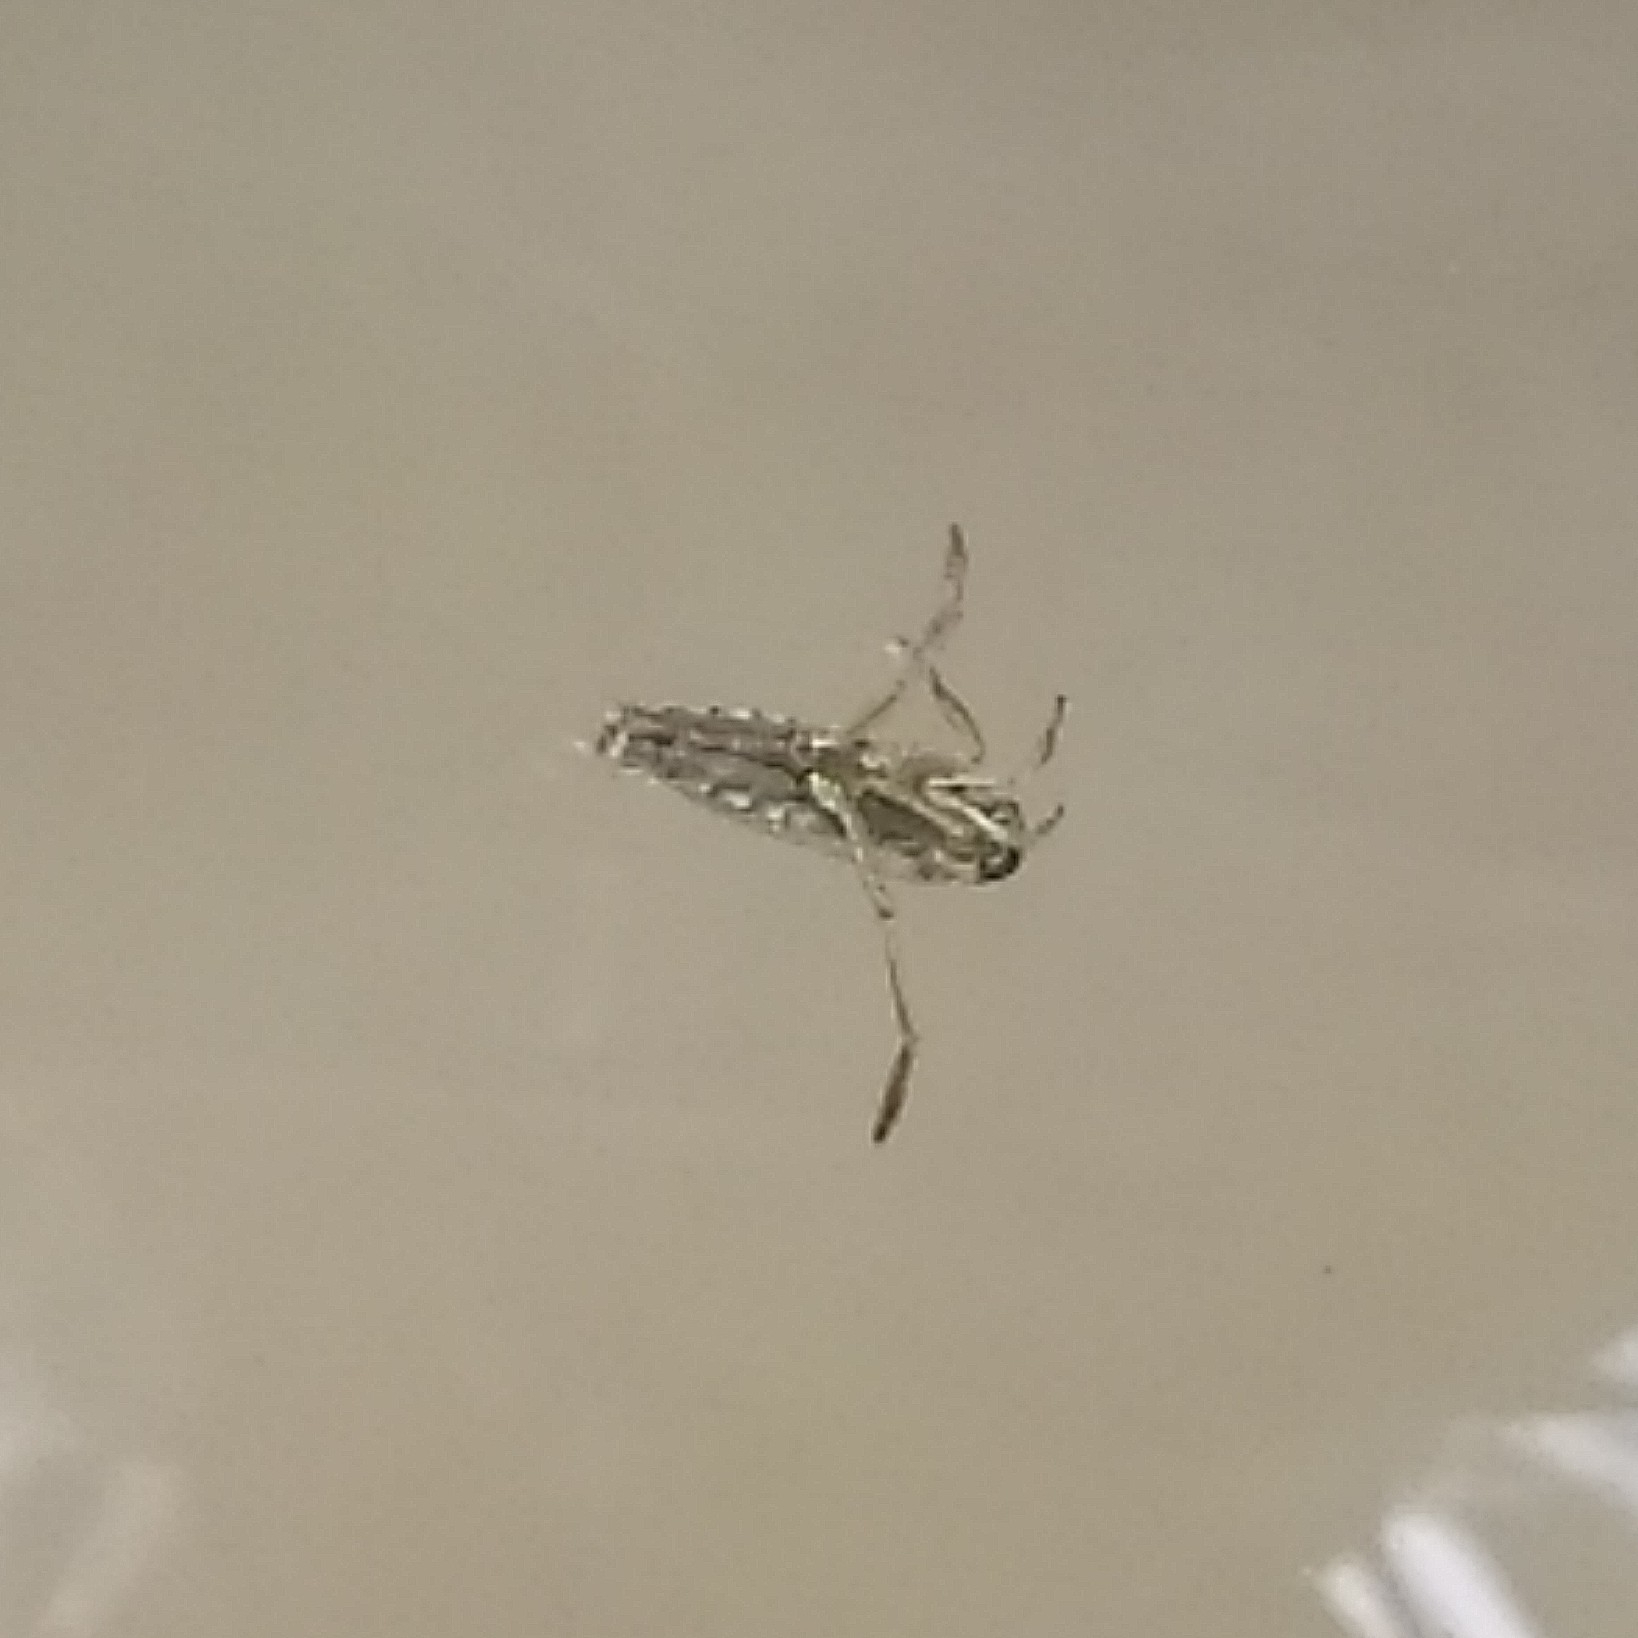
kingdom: Animalia
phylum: Arthropoda
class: Insecta
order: Hemiptera
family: Notonectidae
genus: Notonecta
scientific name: Notonecta
